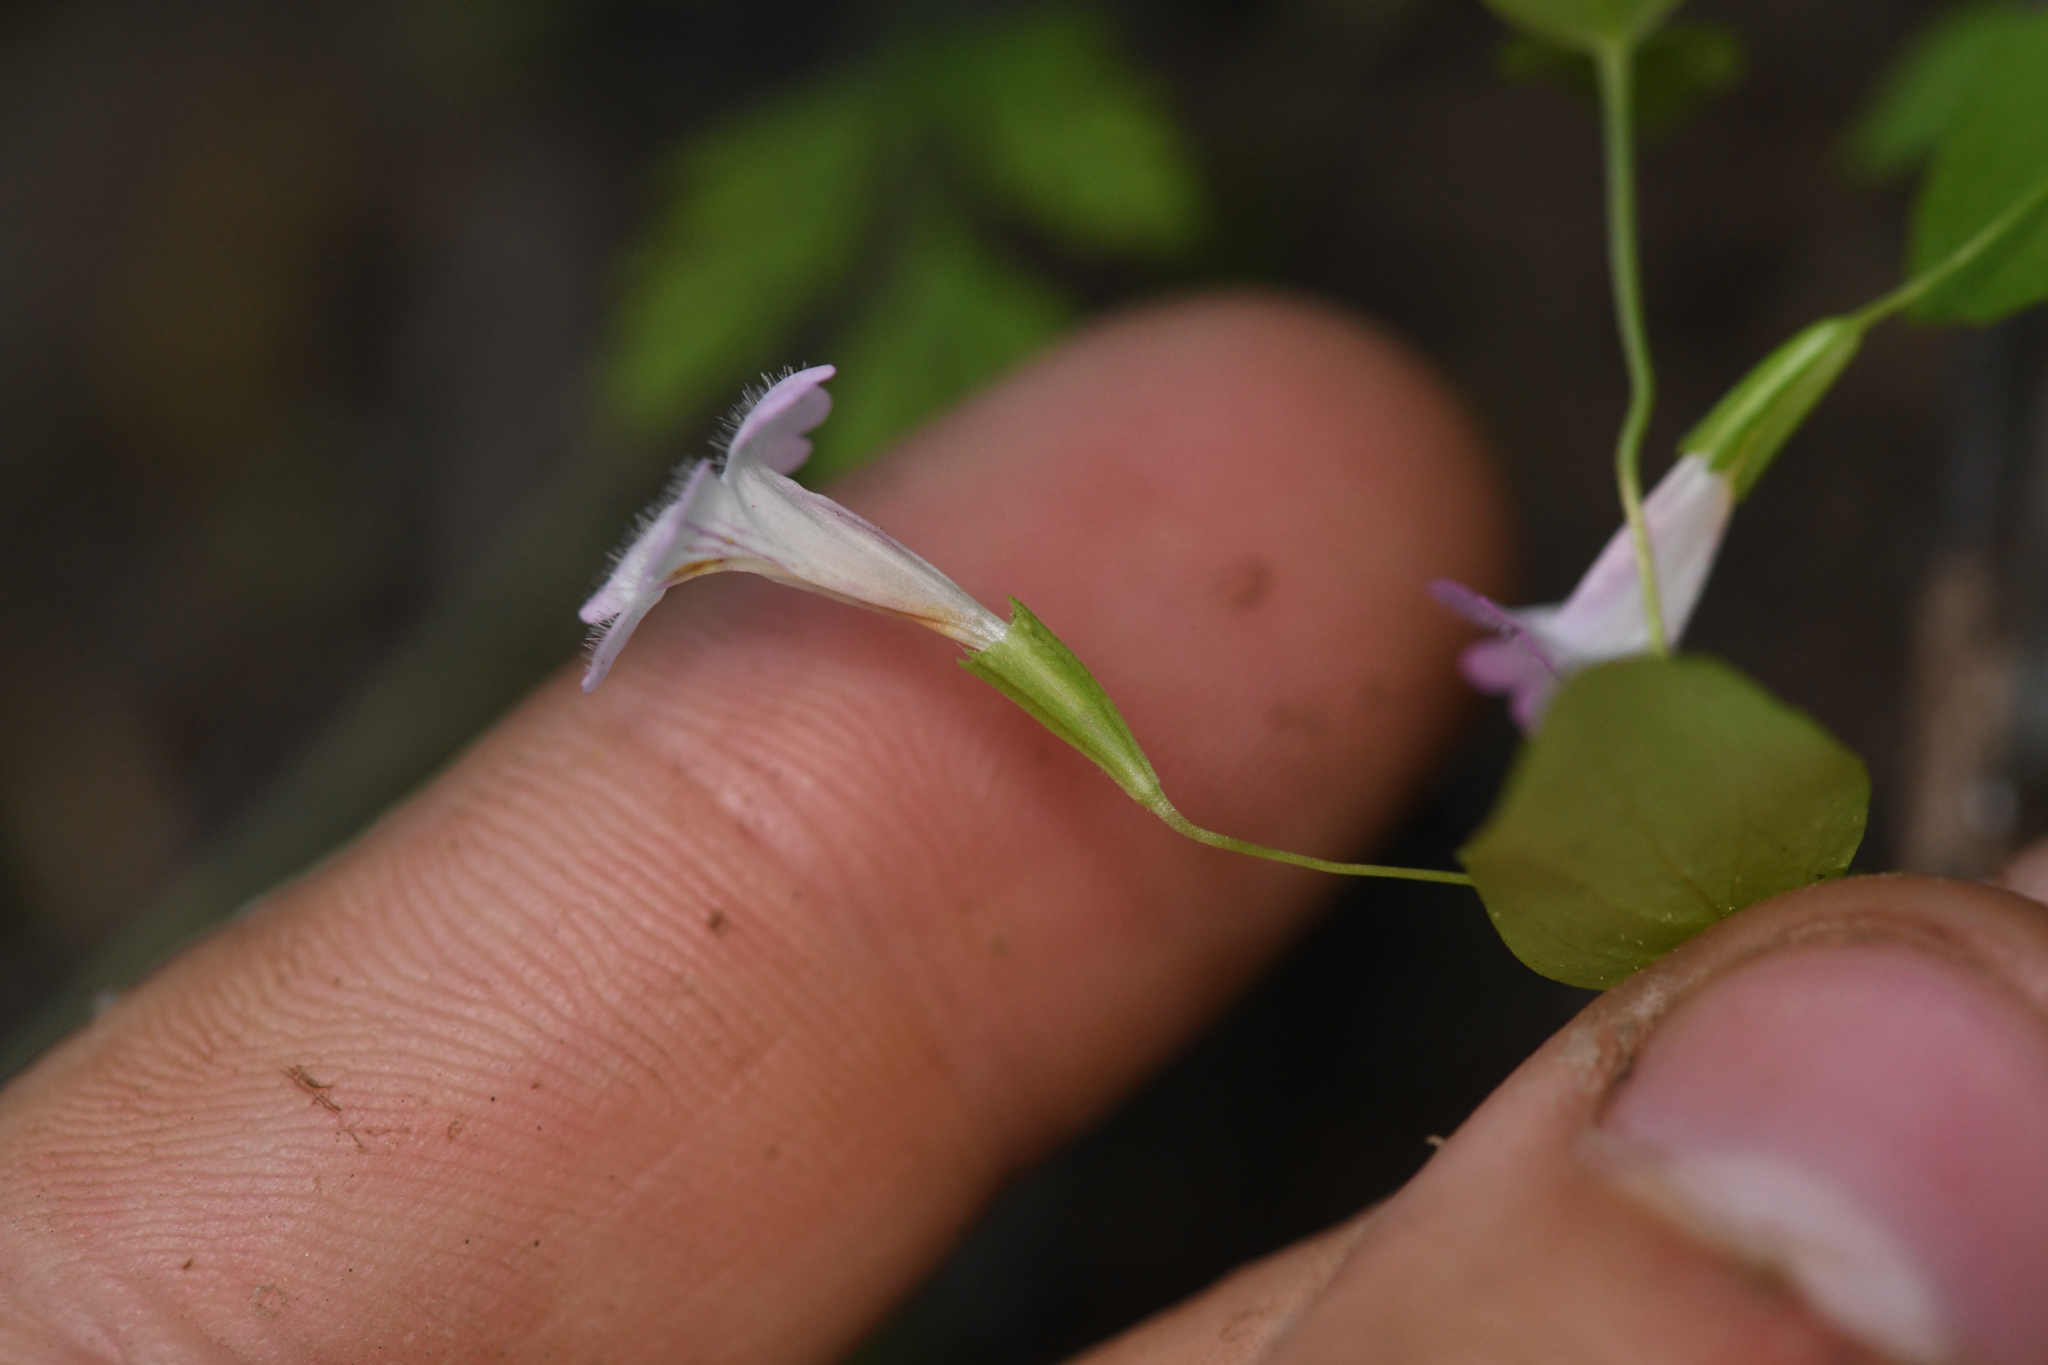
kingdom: Plantae
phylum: Tracheophyta
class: Magnoliopsida
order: Lamiales
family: Phrymaceae
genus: Erythranthe
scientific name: Erythranthe inconspicua
